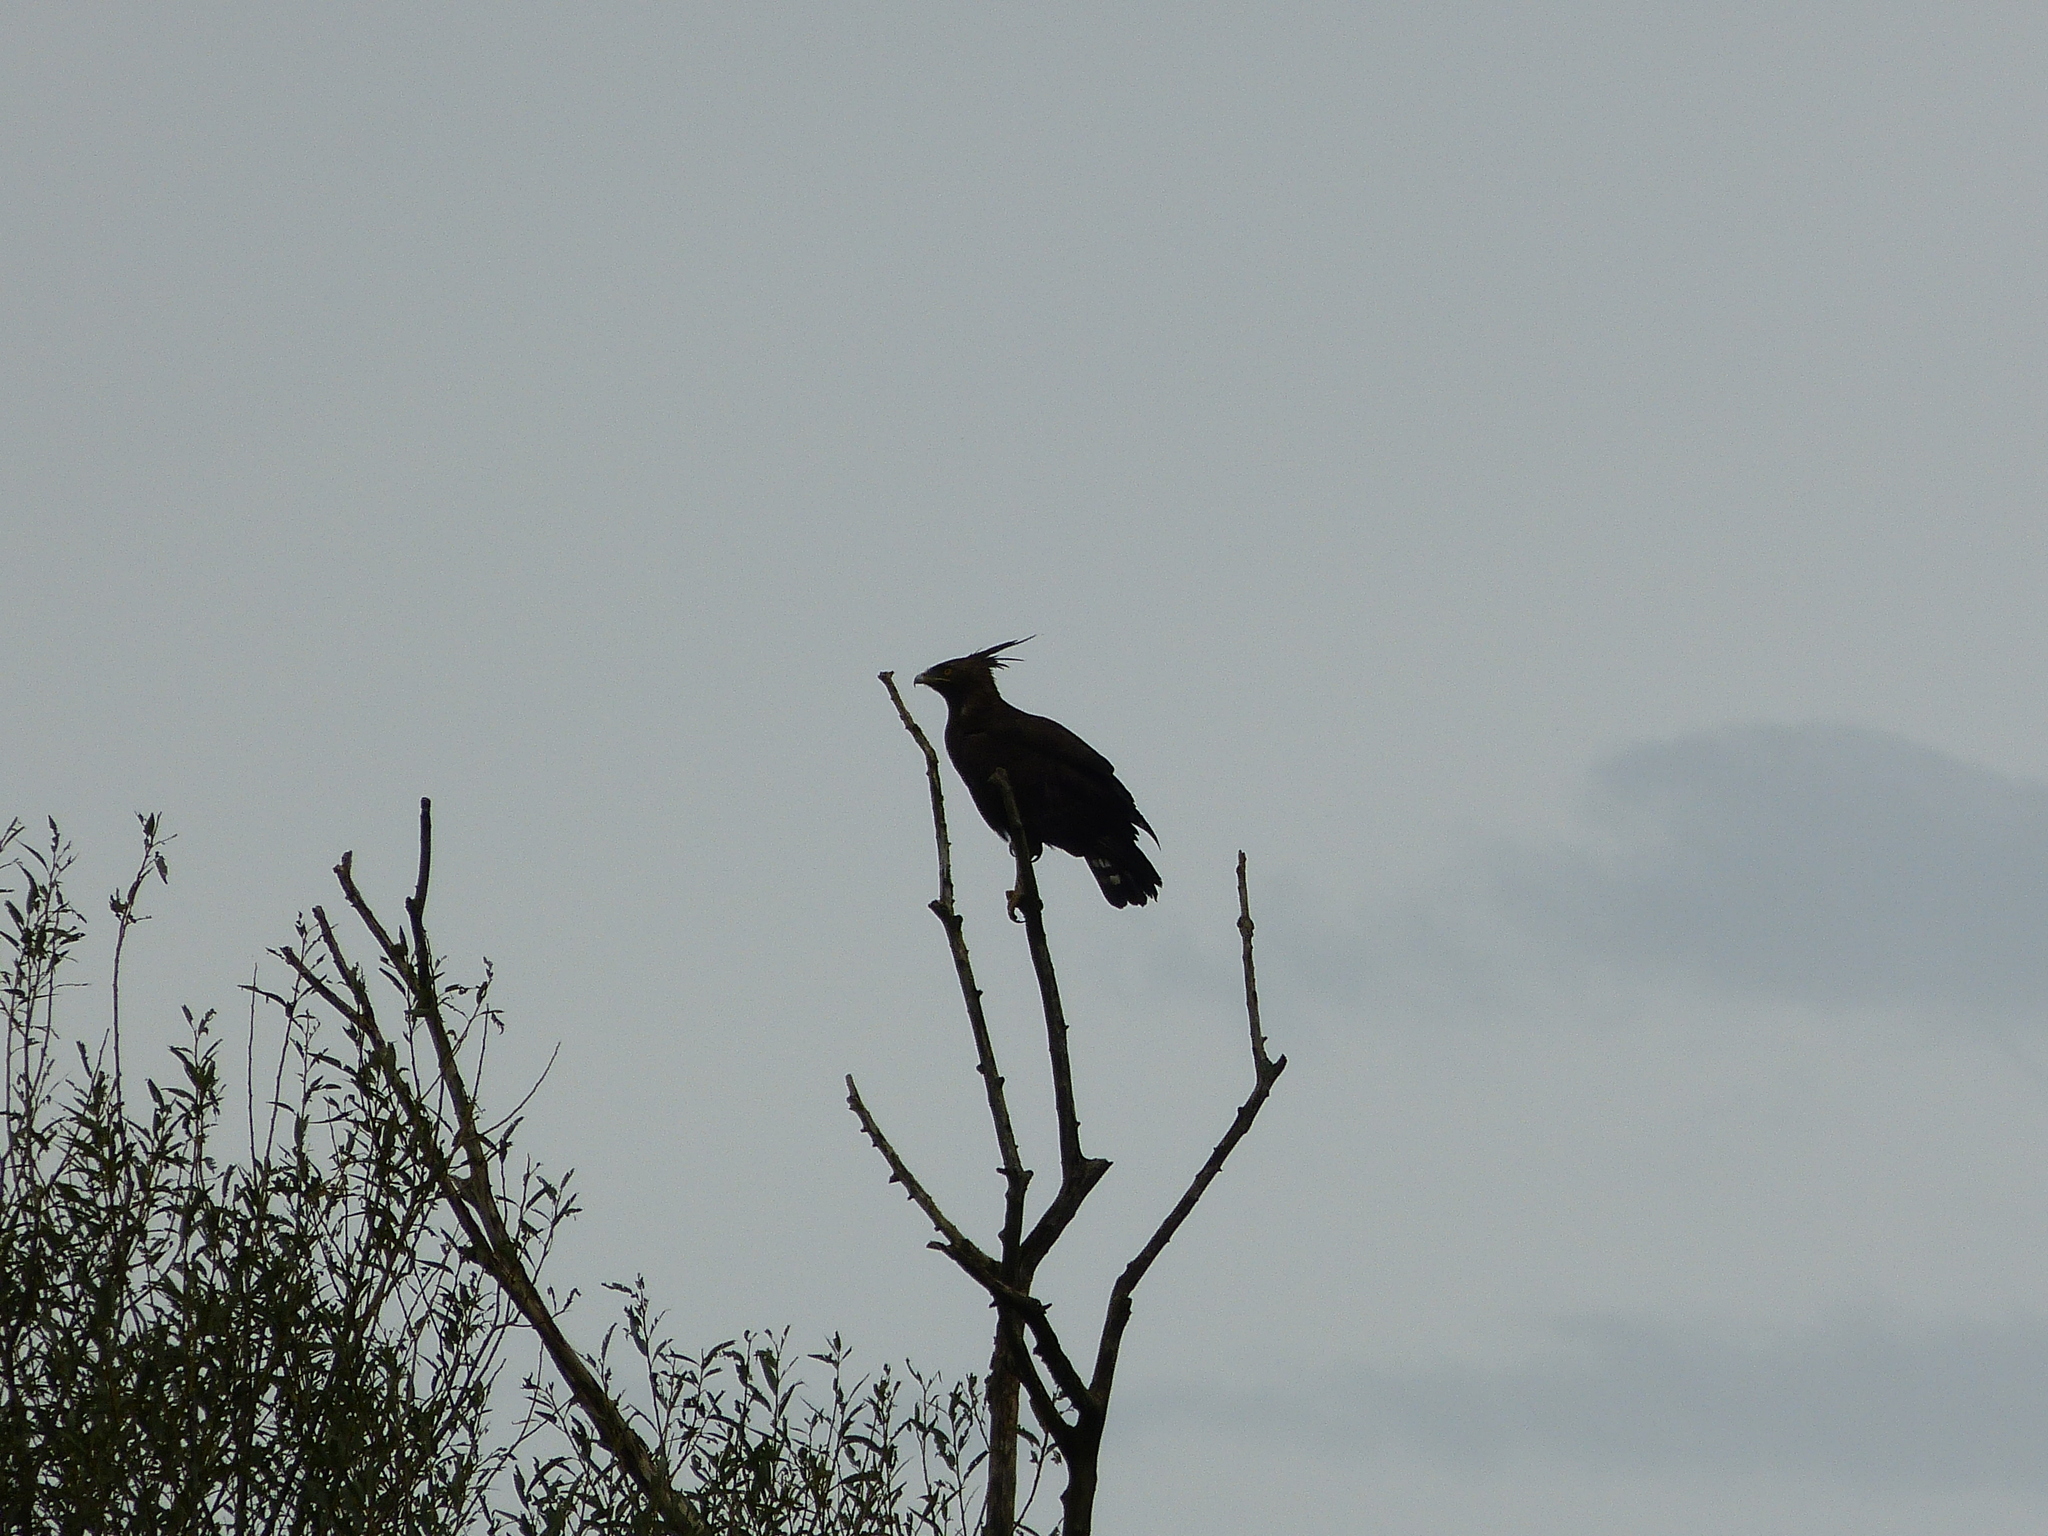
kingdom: Animalia
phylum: Chordata
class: Aves
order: Accipitriformes
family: Accipitridae
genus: Lophaetus
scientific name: Lophaetus occipitalis
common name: Long-crested eagle
